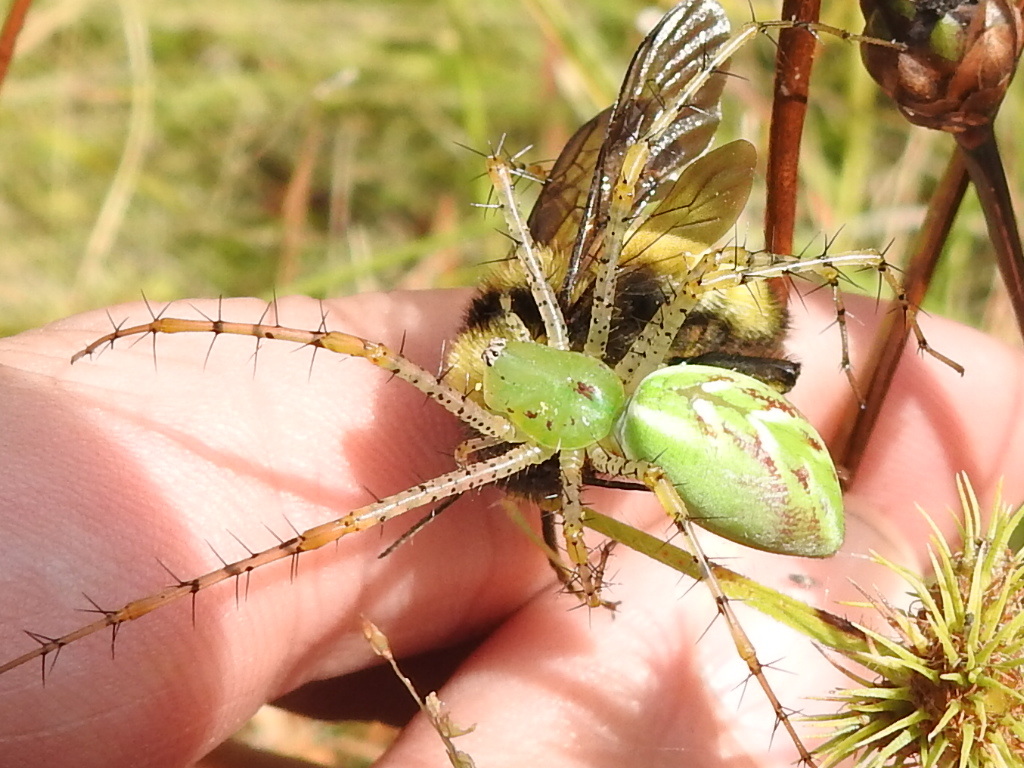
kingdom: Animalia
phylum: Arthropoda
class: Arachnida
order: Araneae
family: Oxyopidae
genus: Peucetia
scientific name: Peucetia viridans
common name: Lynx spiders
